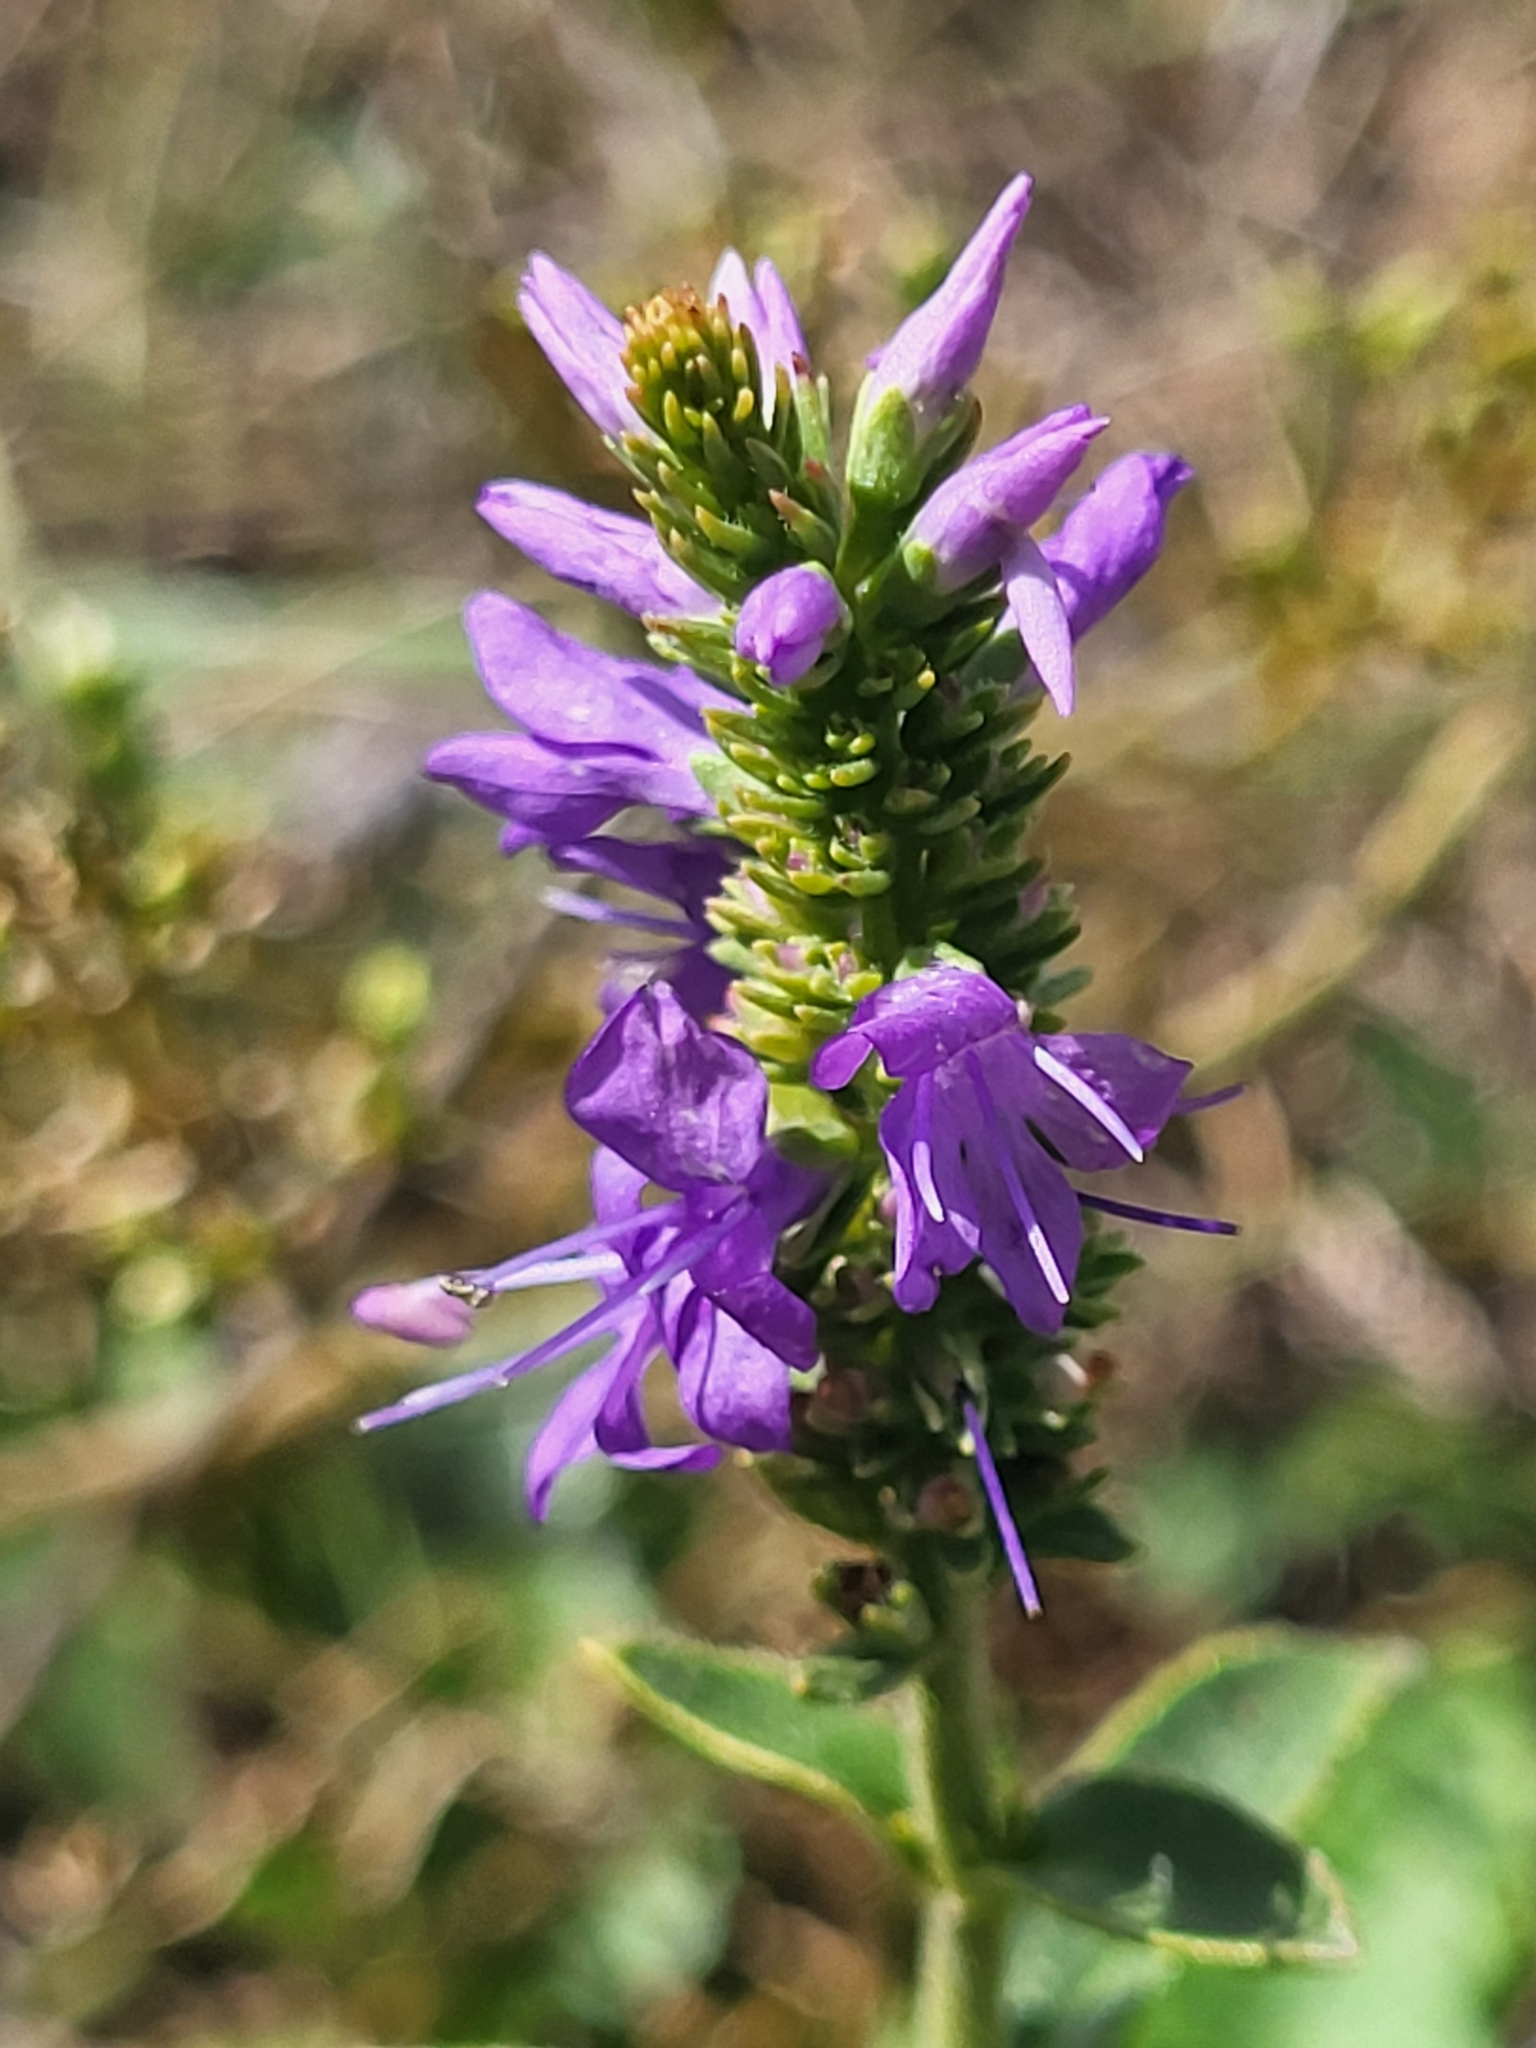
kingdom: Plantae
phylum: Tracheophyta
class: Magnoliopsida
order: Lamiales
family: Plantaginaceae
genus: Veronica
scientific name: Veronica barrelieri
